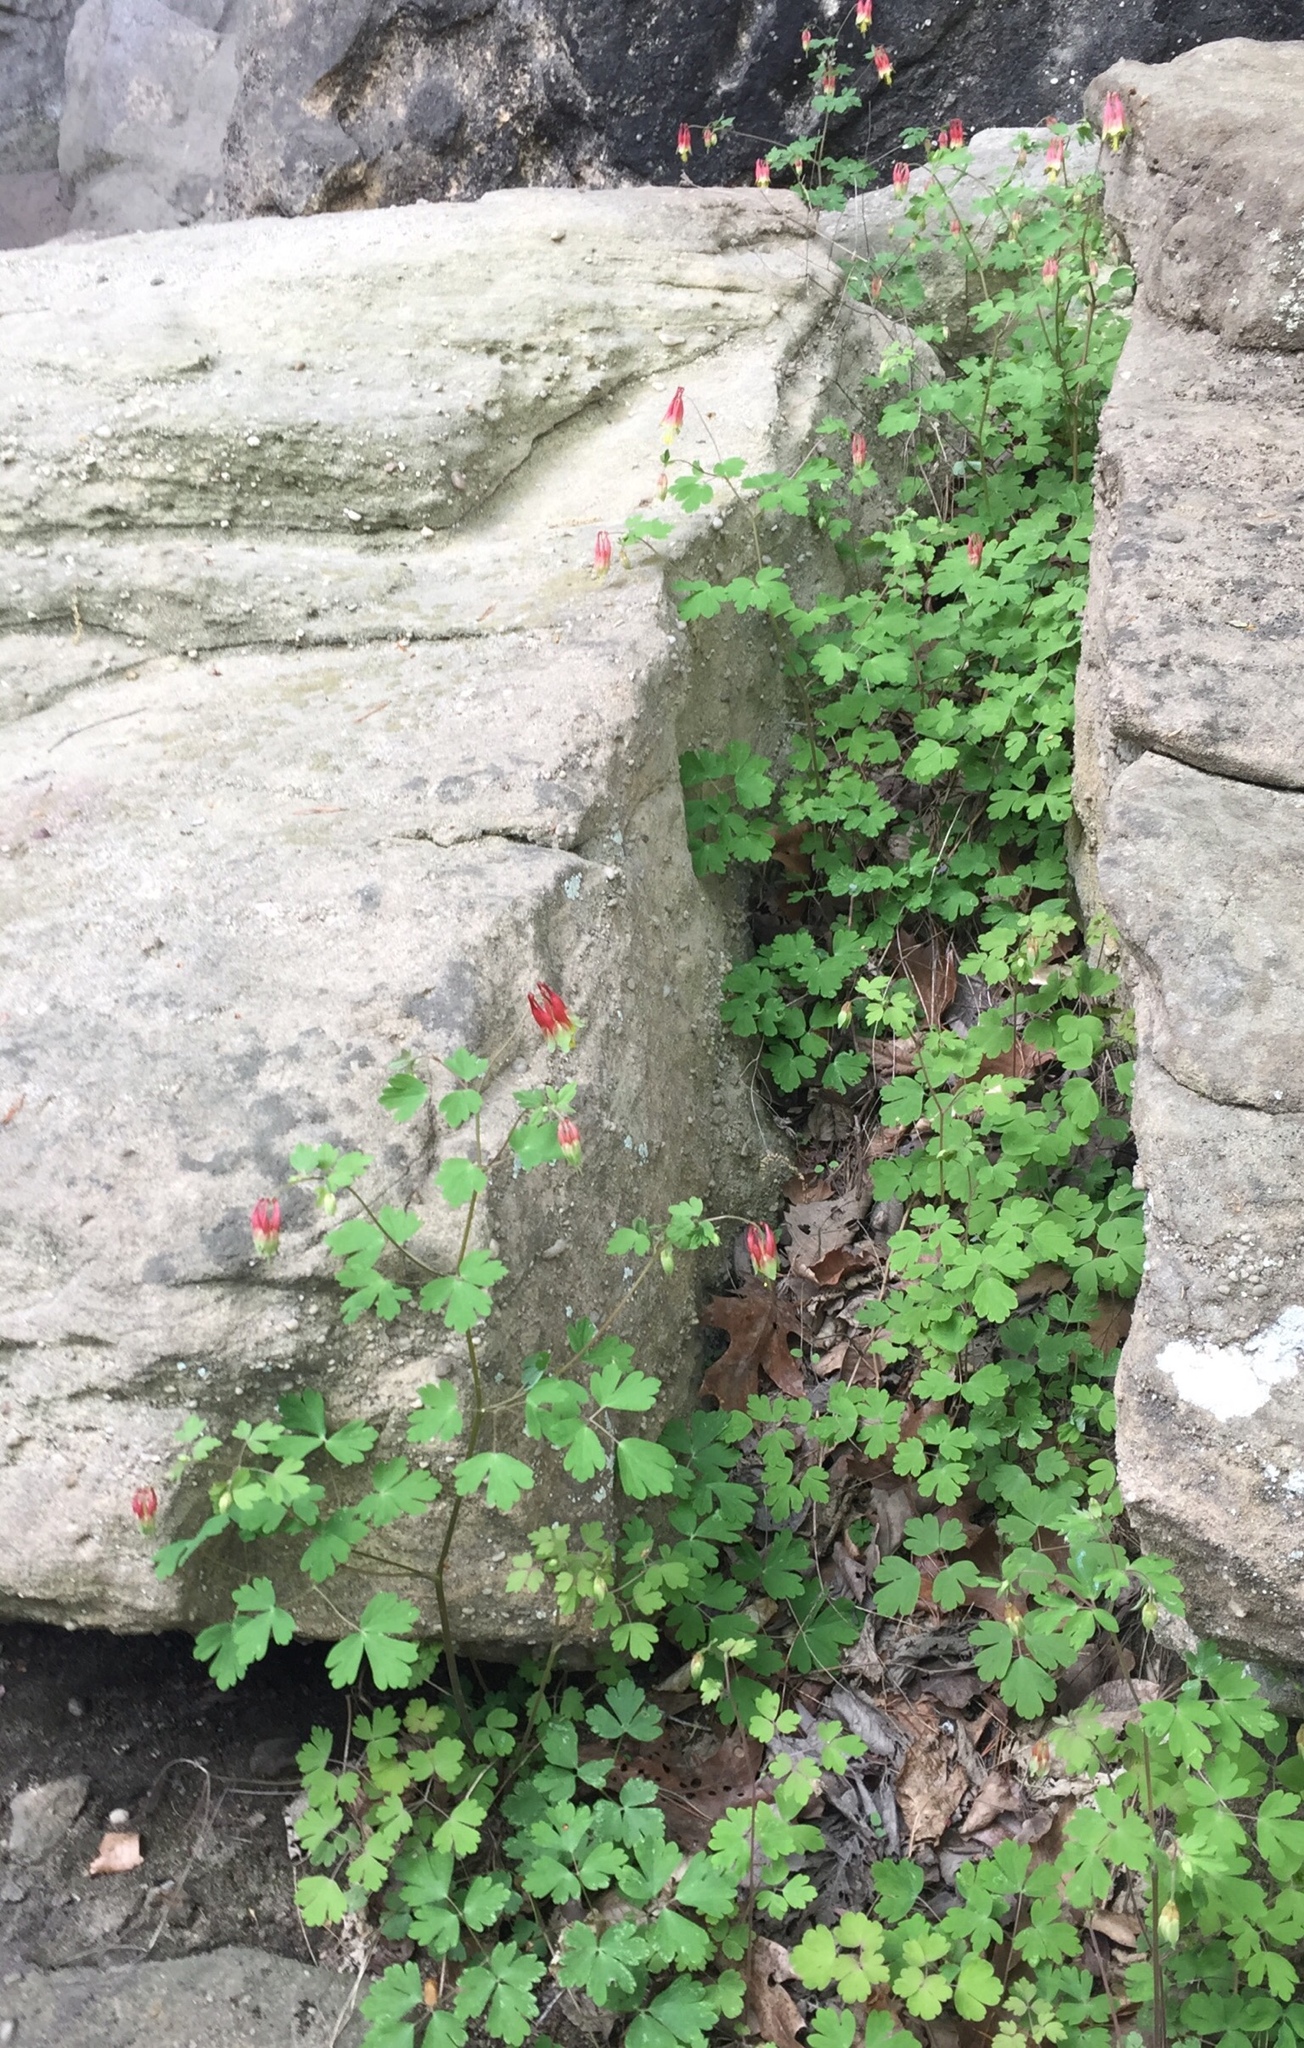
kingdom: Plantae
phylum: Tracheophyta
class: Magnoliopsida
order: Ranunculales
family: Ranunculaceae
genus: Aquilegia
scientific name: Aquilegia canadensis
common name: American columbine
